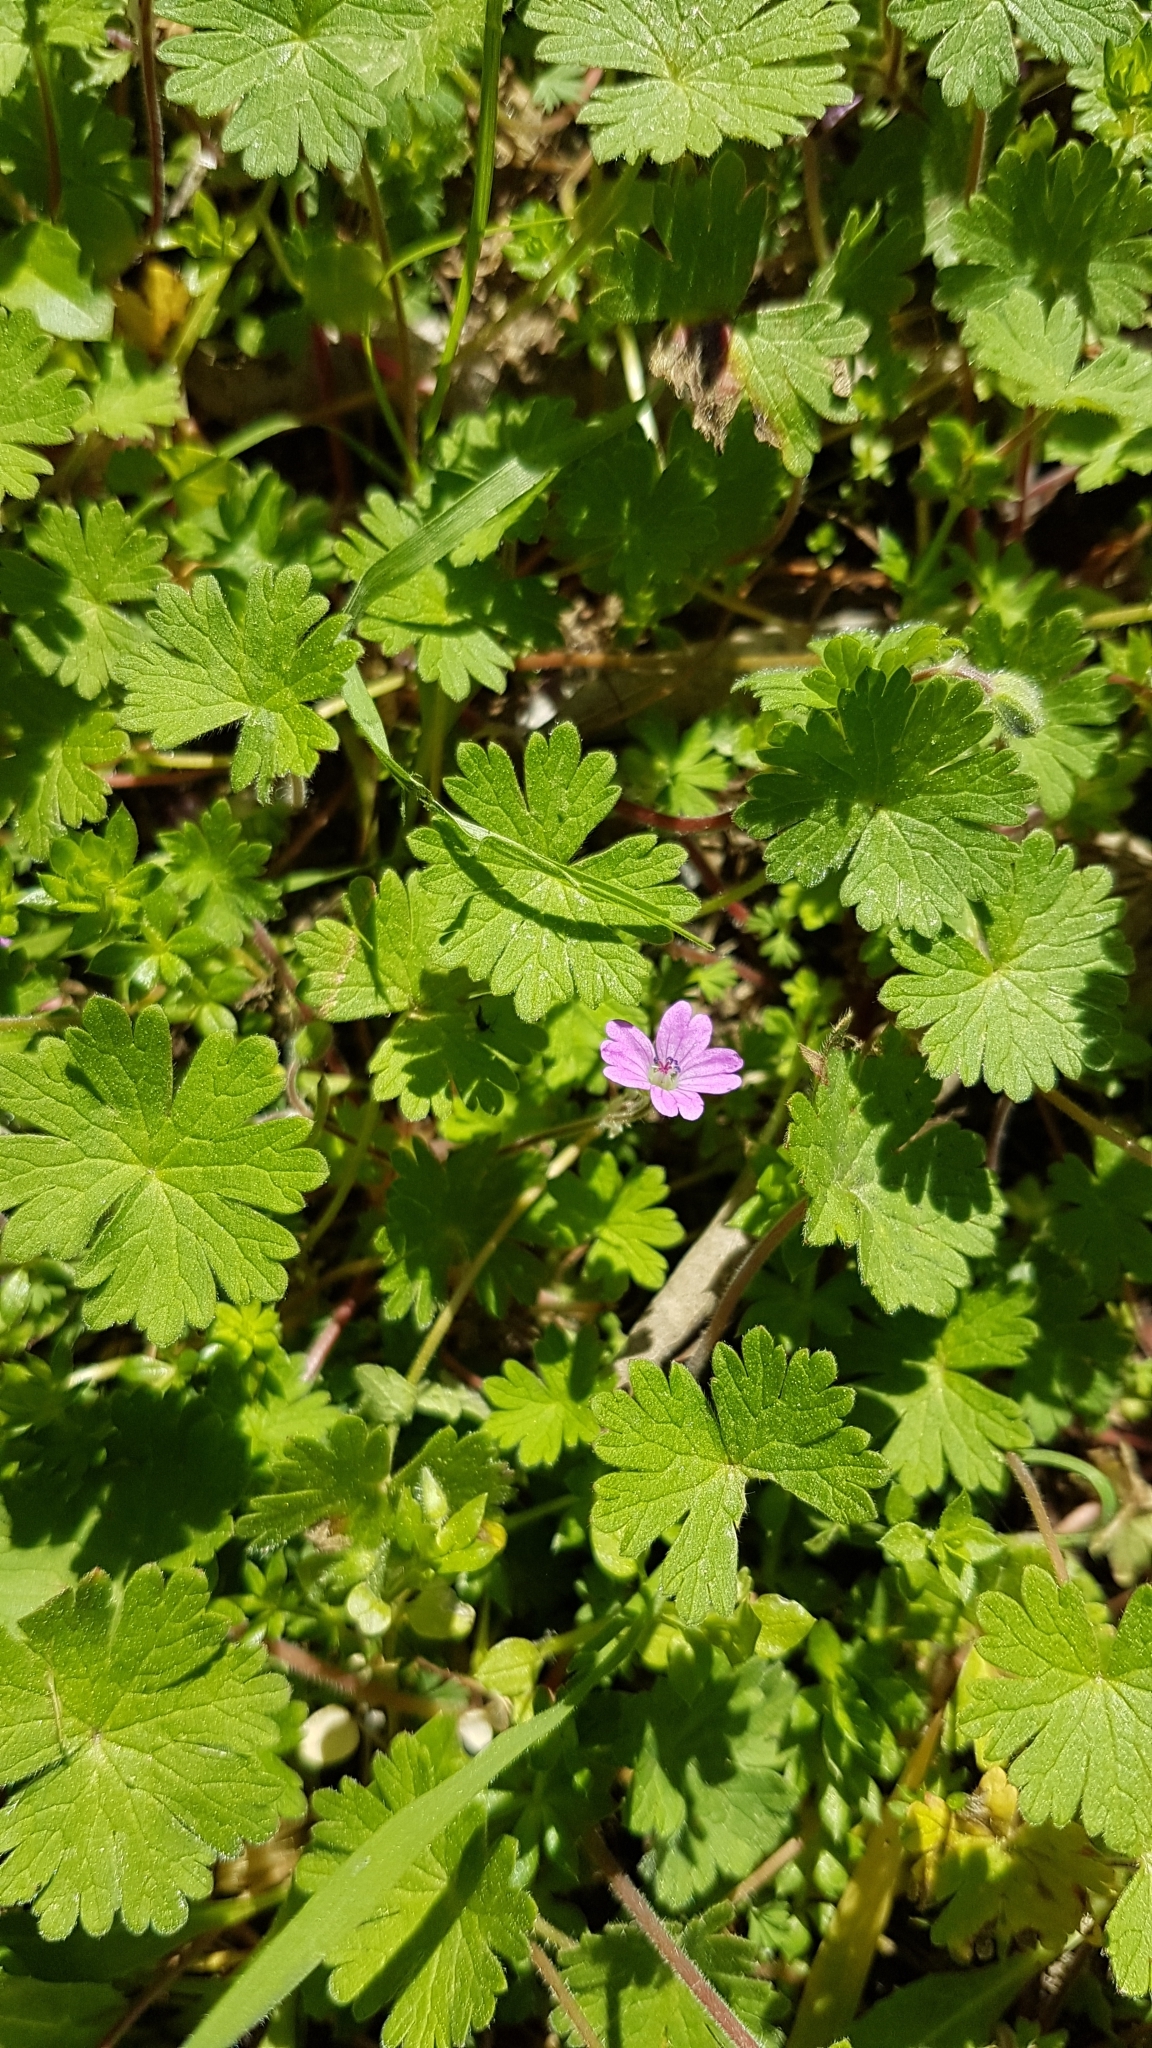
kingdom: Plantae
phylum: Tracheophyta
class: Magnoliopsida
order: Geraniales
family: Geraniaceae
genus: Geranium
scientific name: Geranium molle
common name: Dove's-foot crane's-bill
